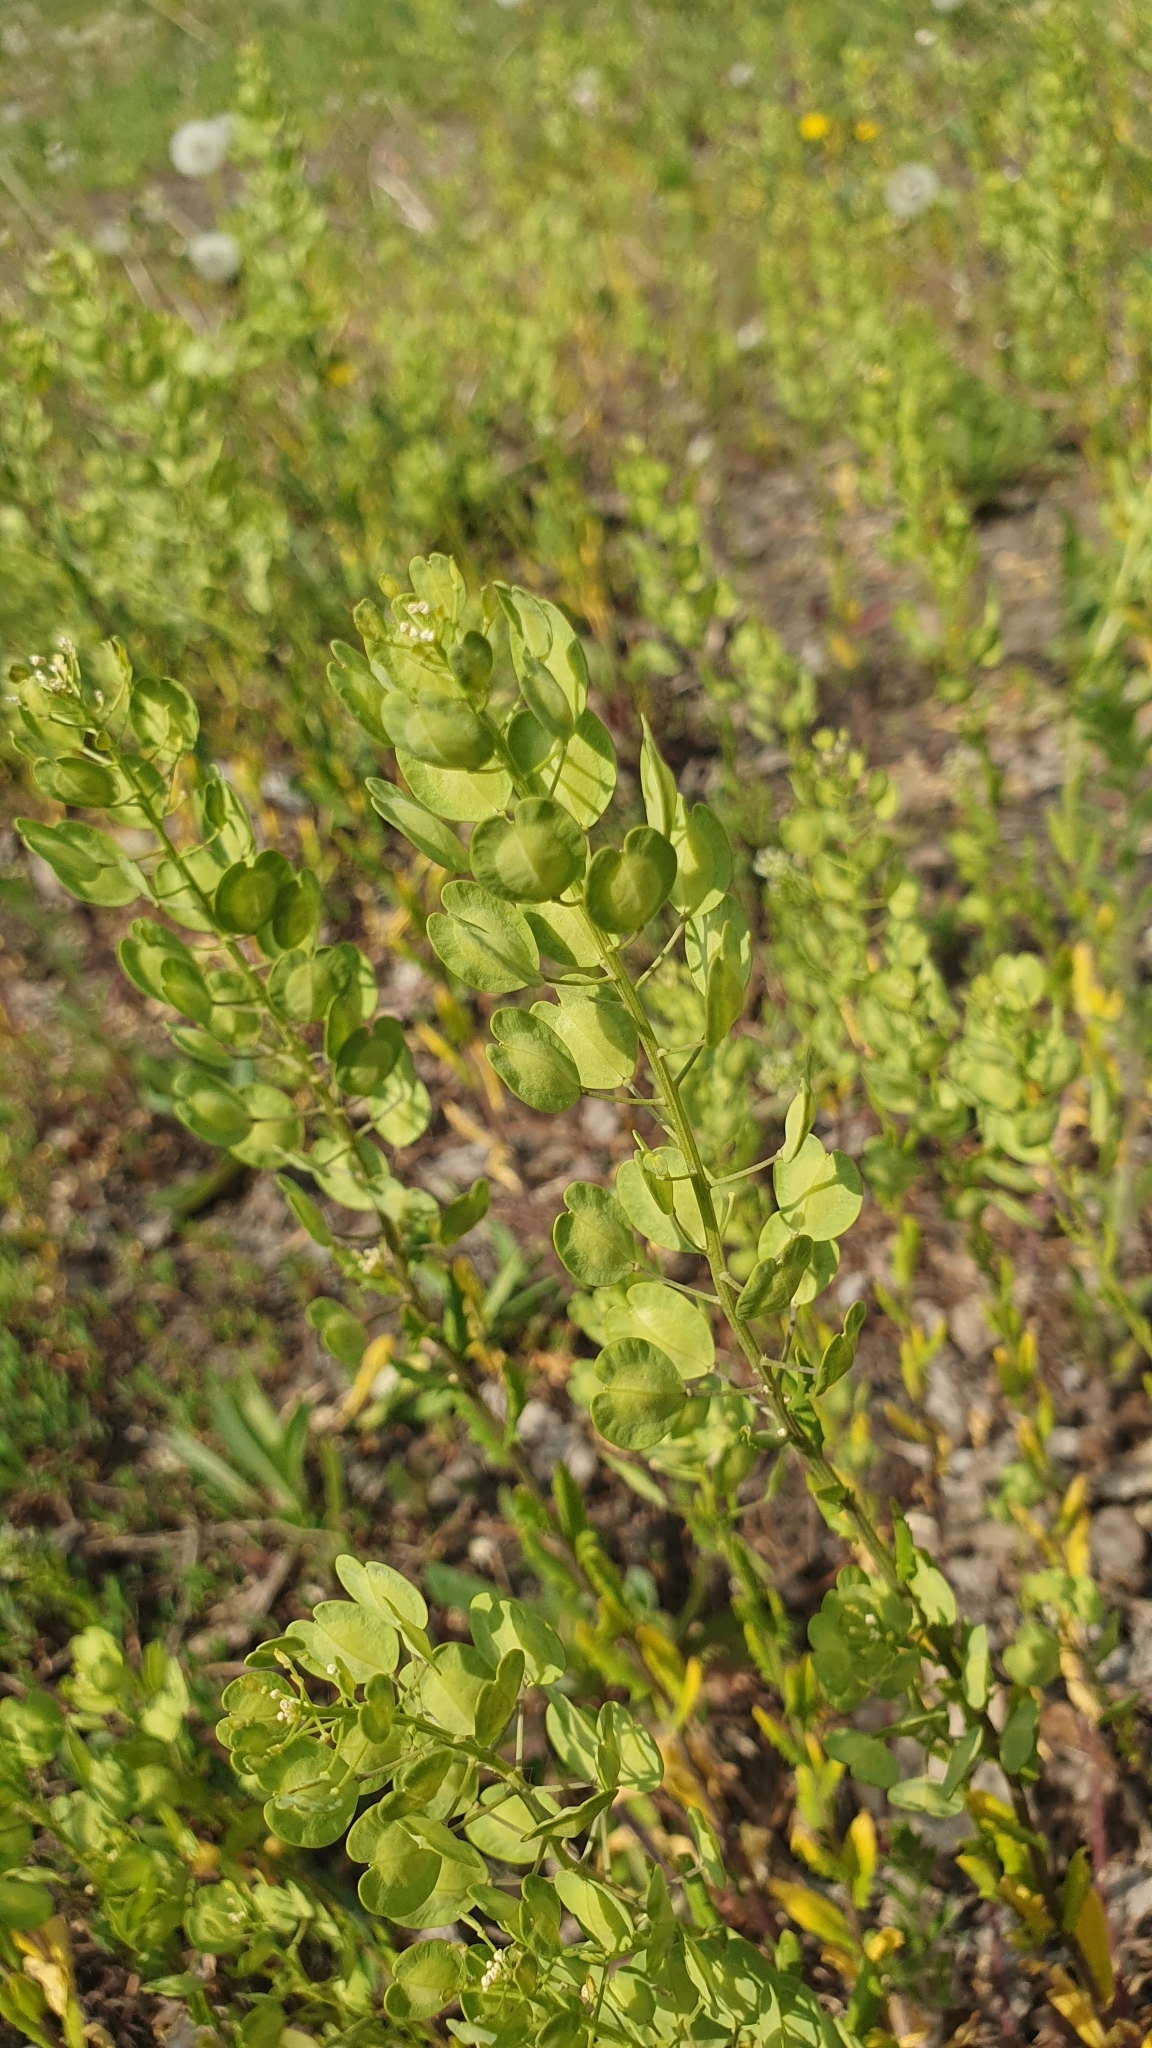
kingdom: Plantae
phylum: Tracheophyta
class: Magnoliopsida
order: Brassicales
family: Brassicaceae
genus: Thlaspi
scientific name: Thlaspi arvense
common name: Field pennycress
